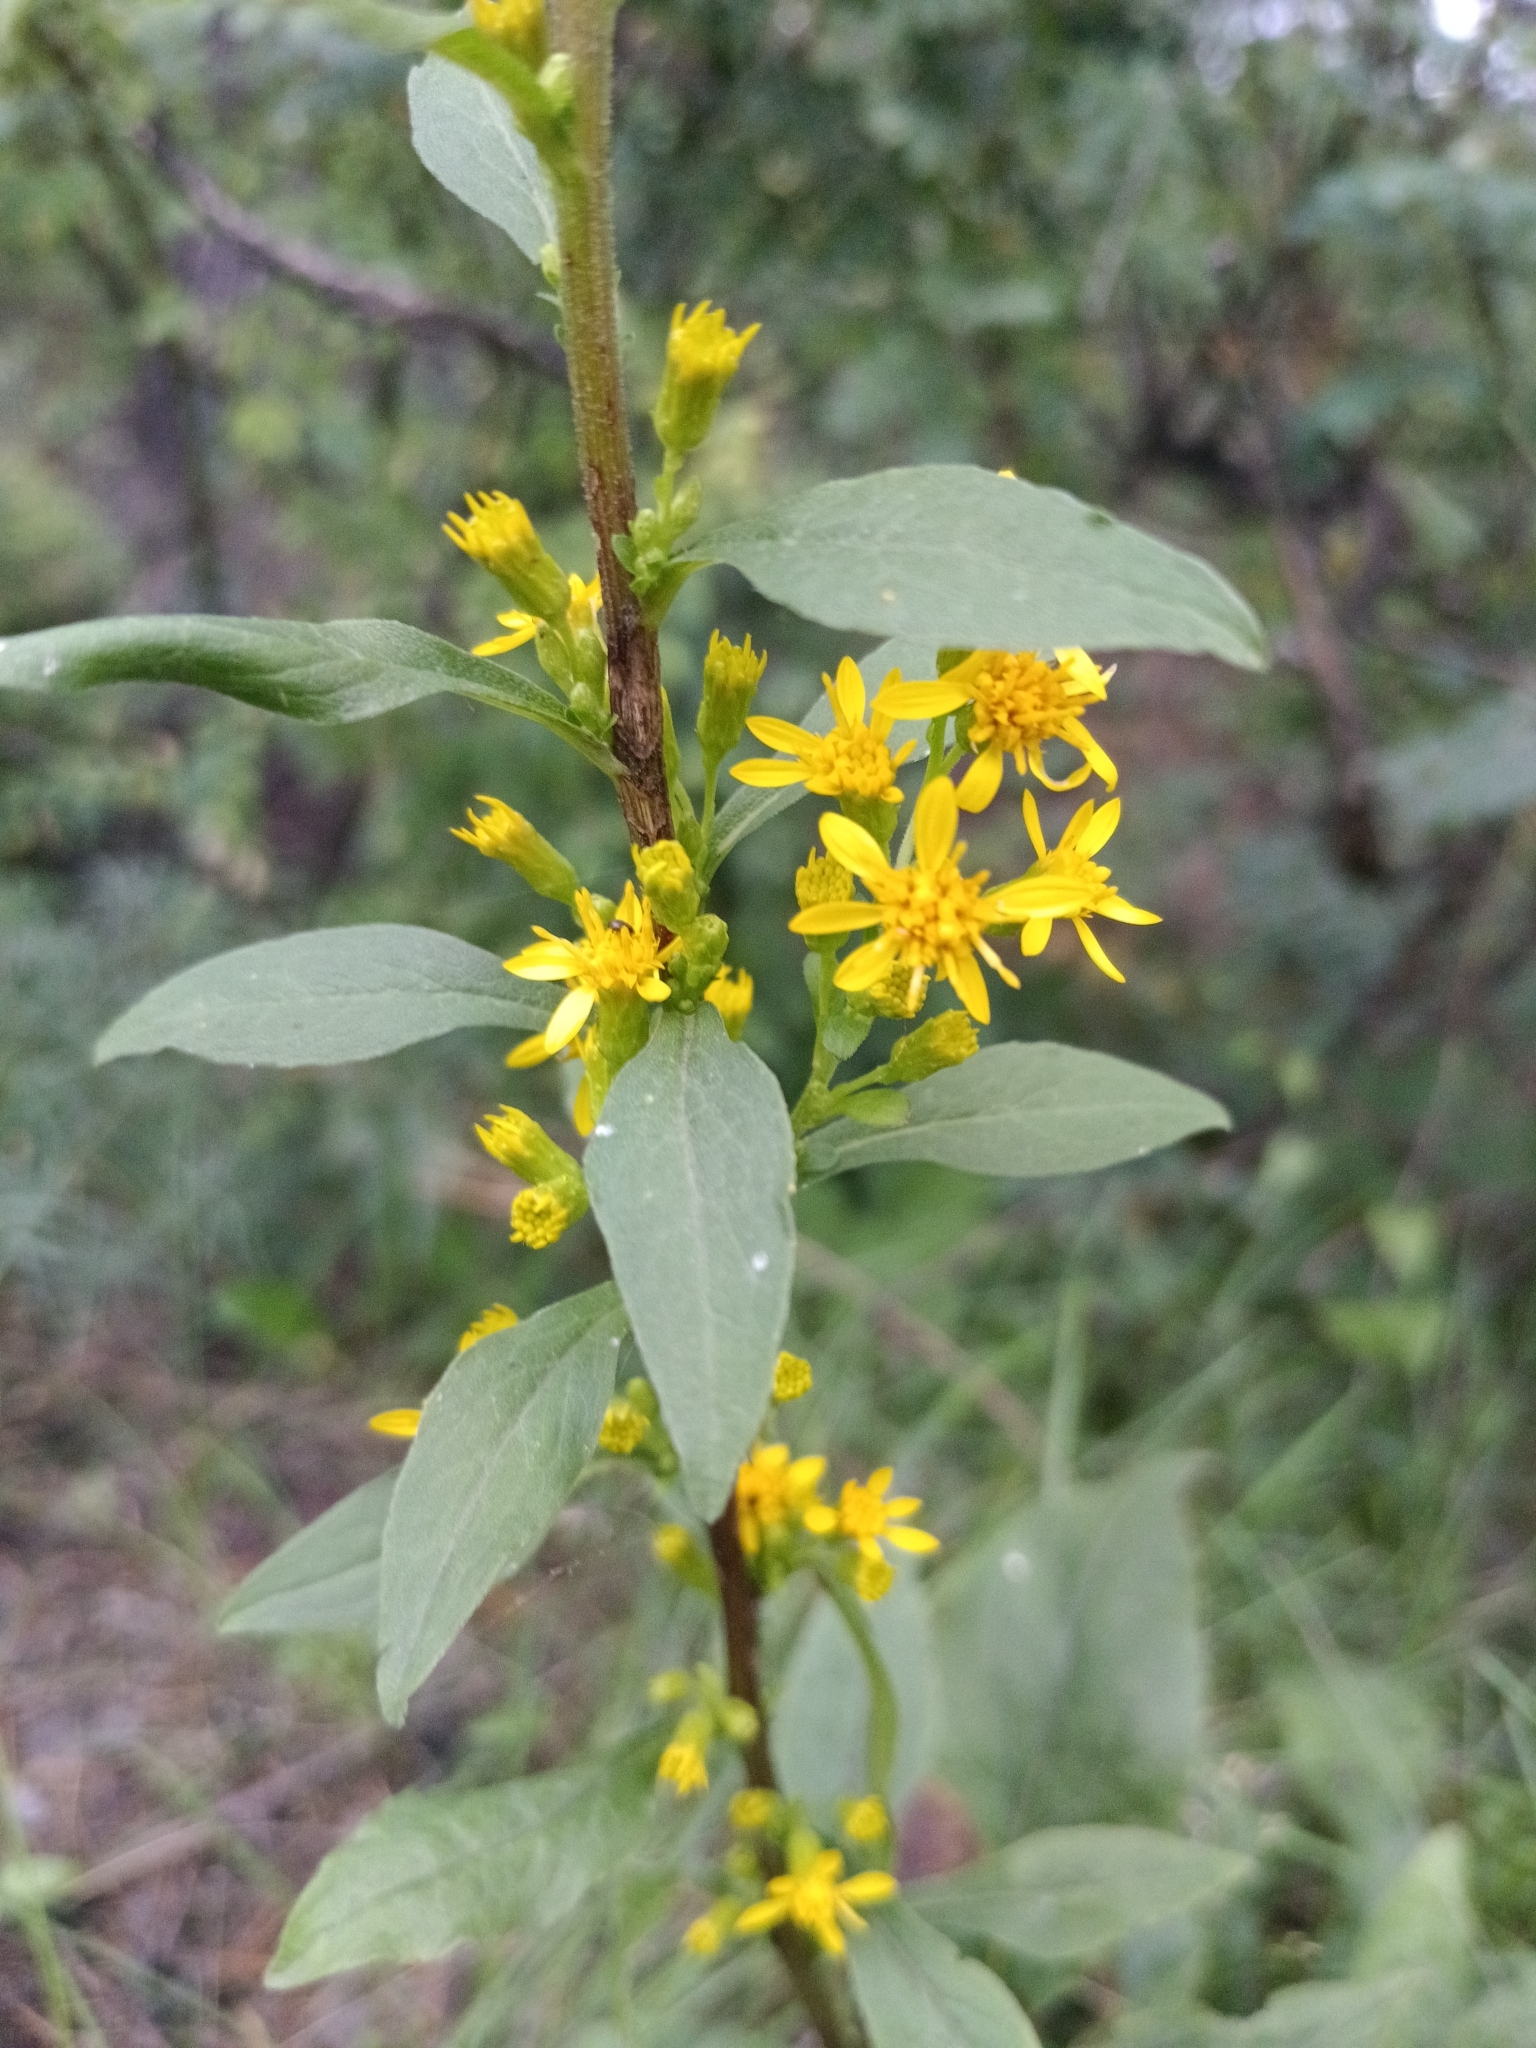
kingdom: Plantae
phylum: Tracheophyta
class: Magnoliopsida
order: Asterales
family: Asteraceae
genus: Solidago
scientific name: Solidago virgaurea
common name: Goldenrod
